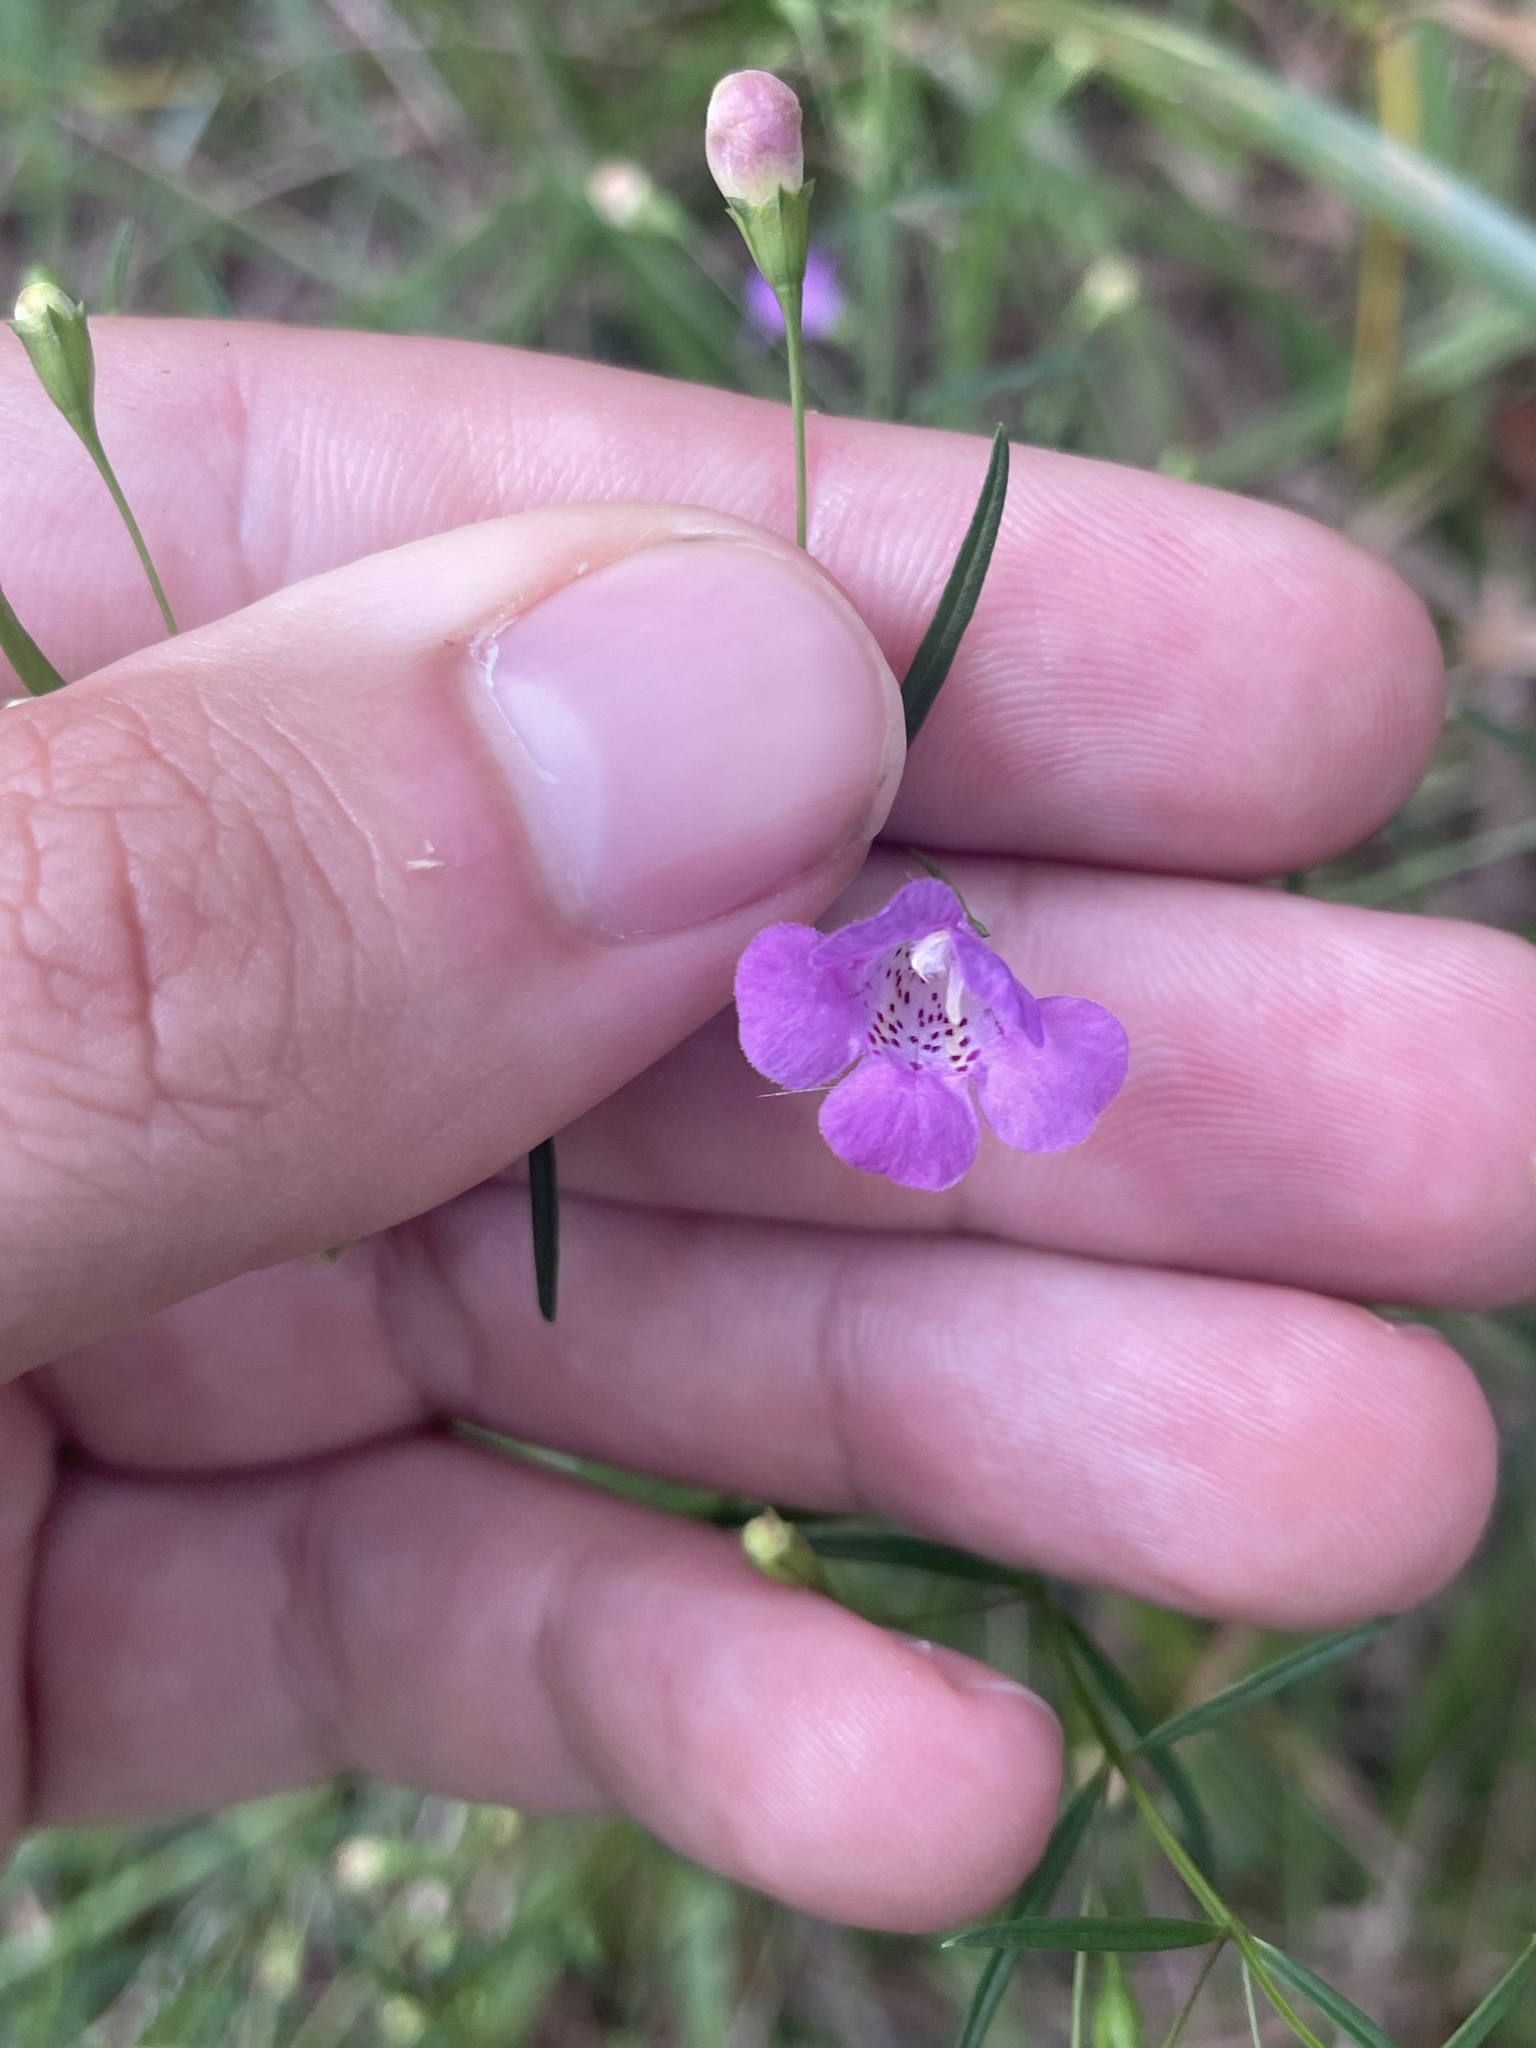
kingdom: Plantae
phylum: Tracheophyta
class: Magnoliopsida
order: Lamiales
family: Orobanchaceae
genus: Agalinis
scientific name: Agalinis tenuifolia
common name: Slender agalinis
